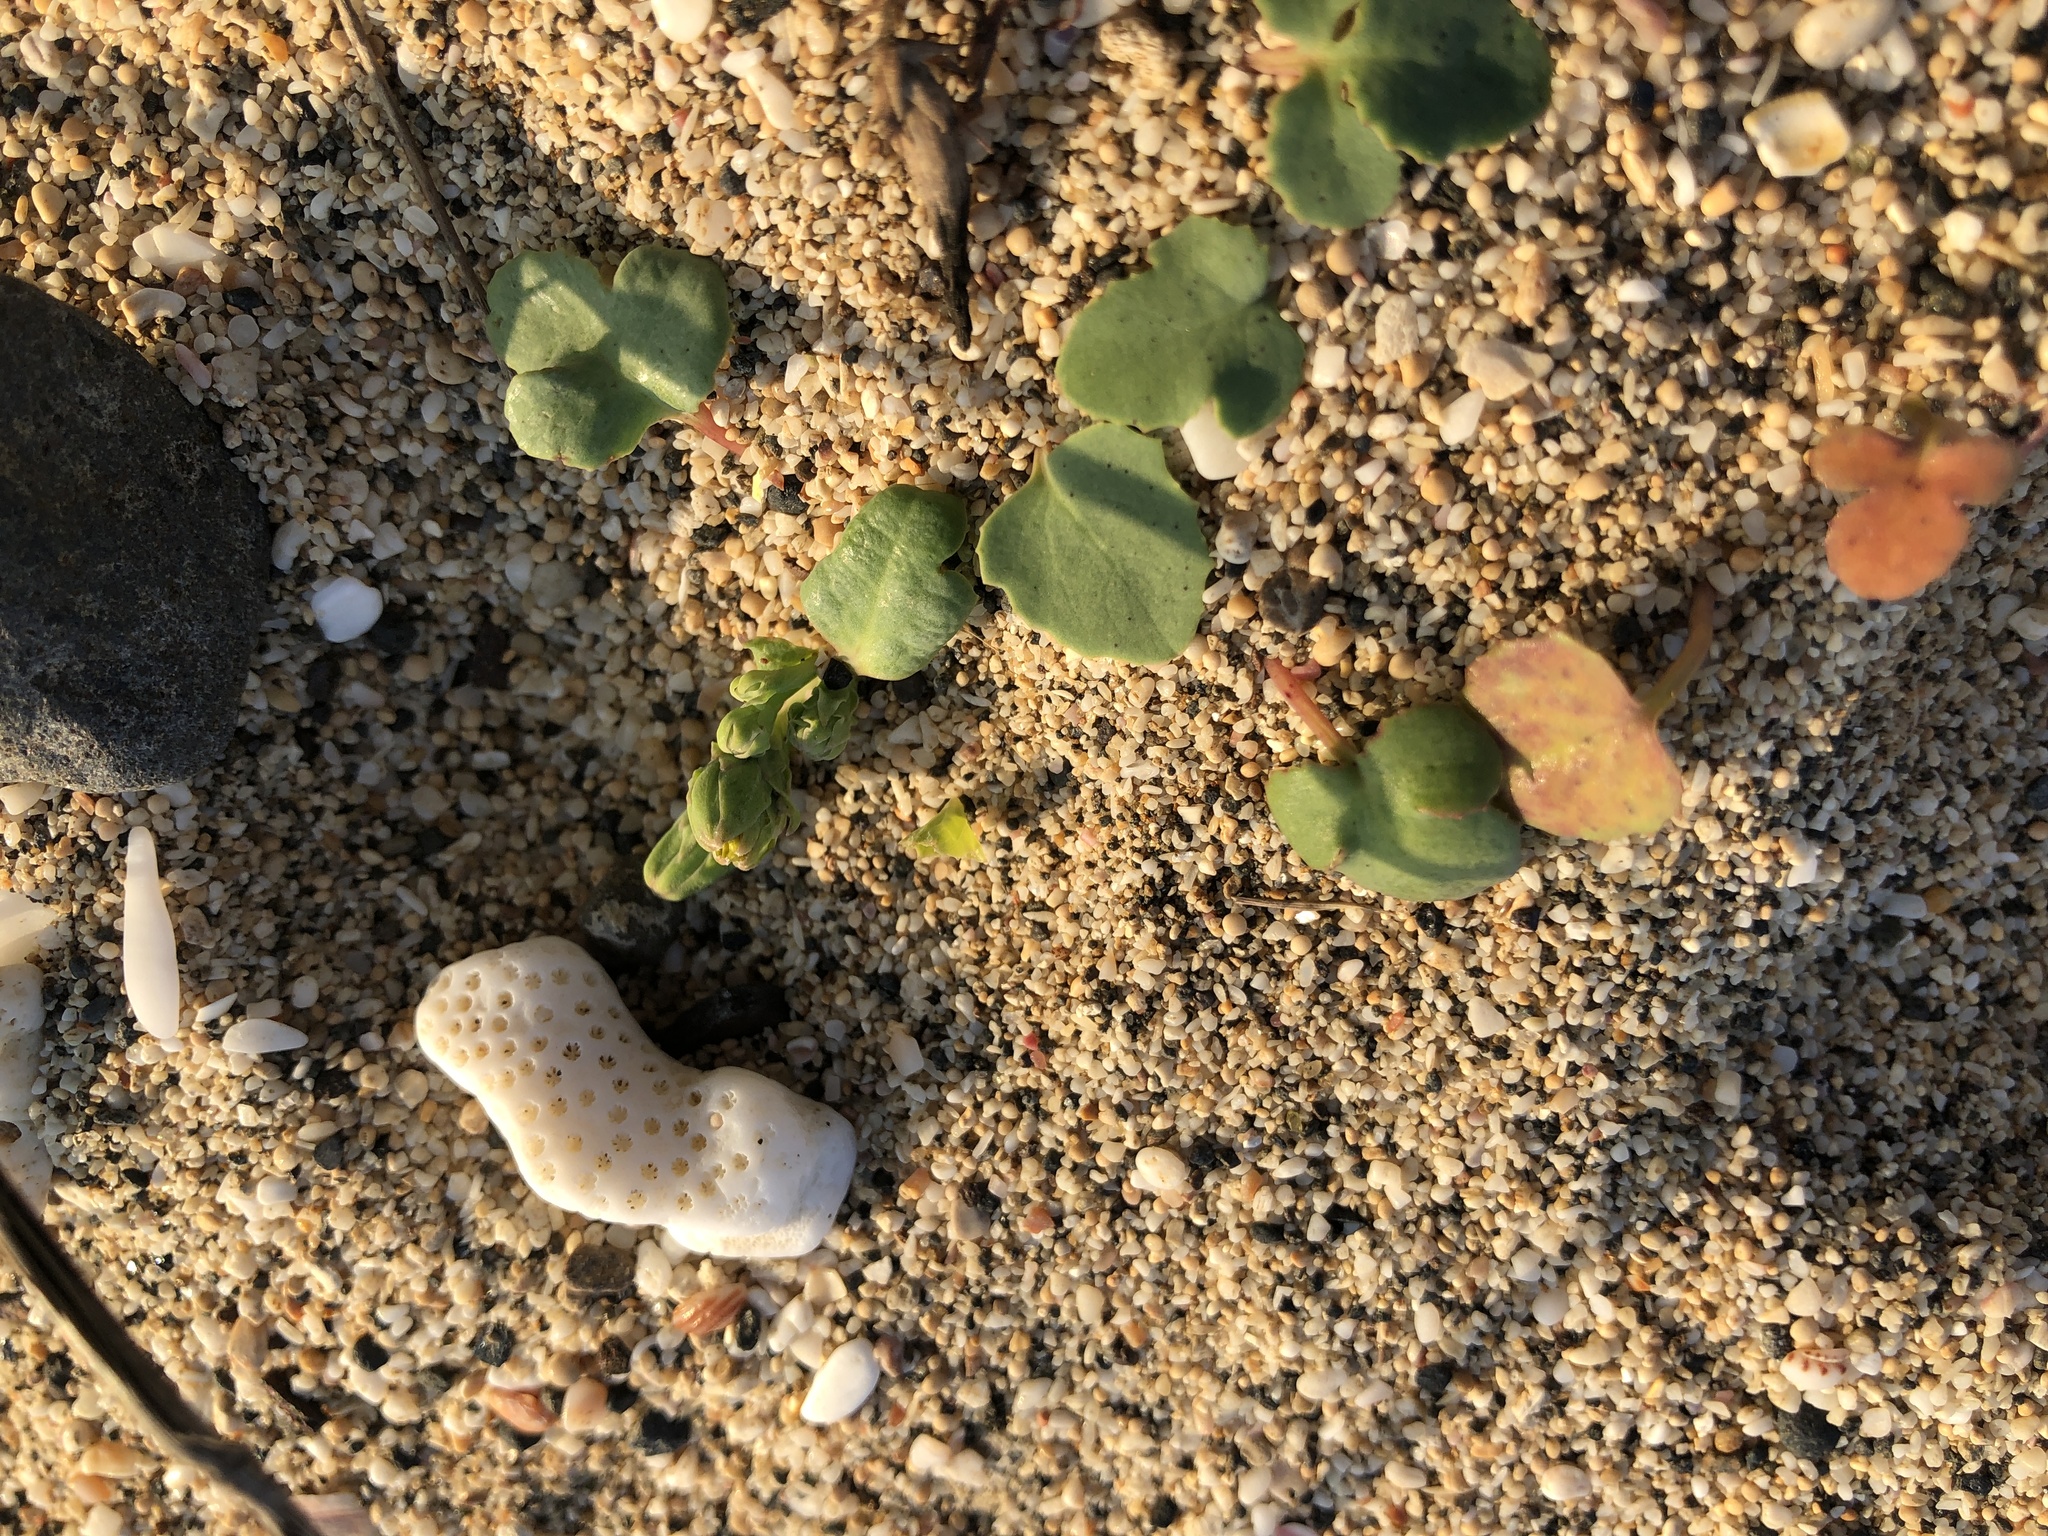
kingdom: Plantae
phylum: Tracheophyta
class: Magnoliopsida
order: Asterales
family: Asteraceae
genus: Ixeris
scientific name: Ixeris repens
